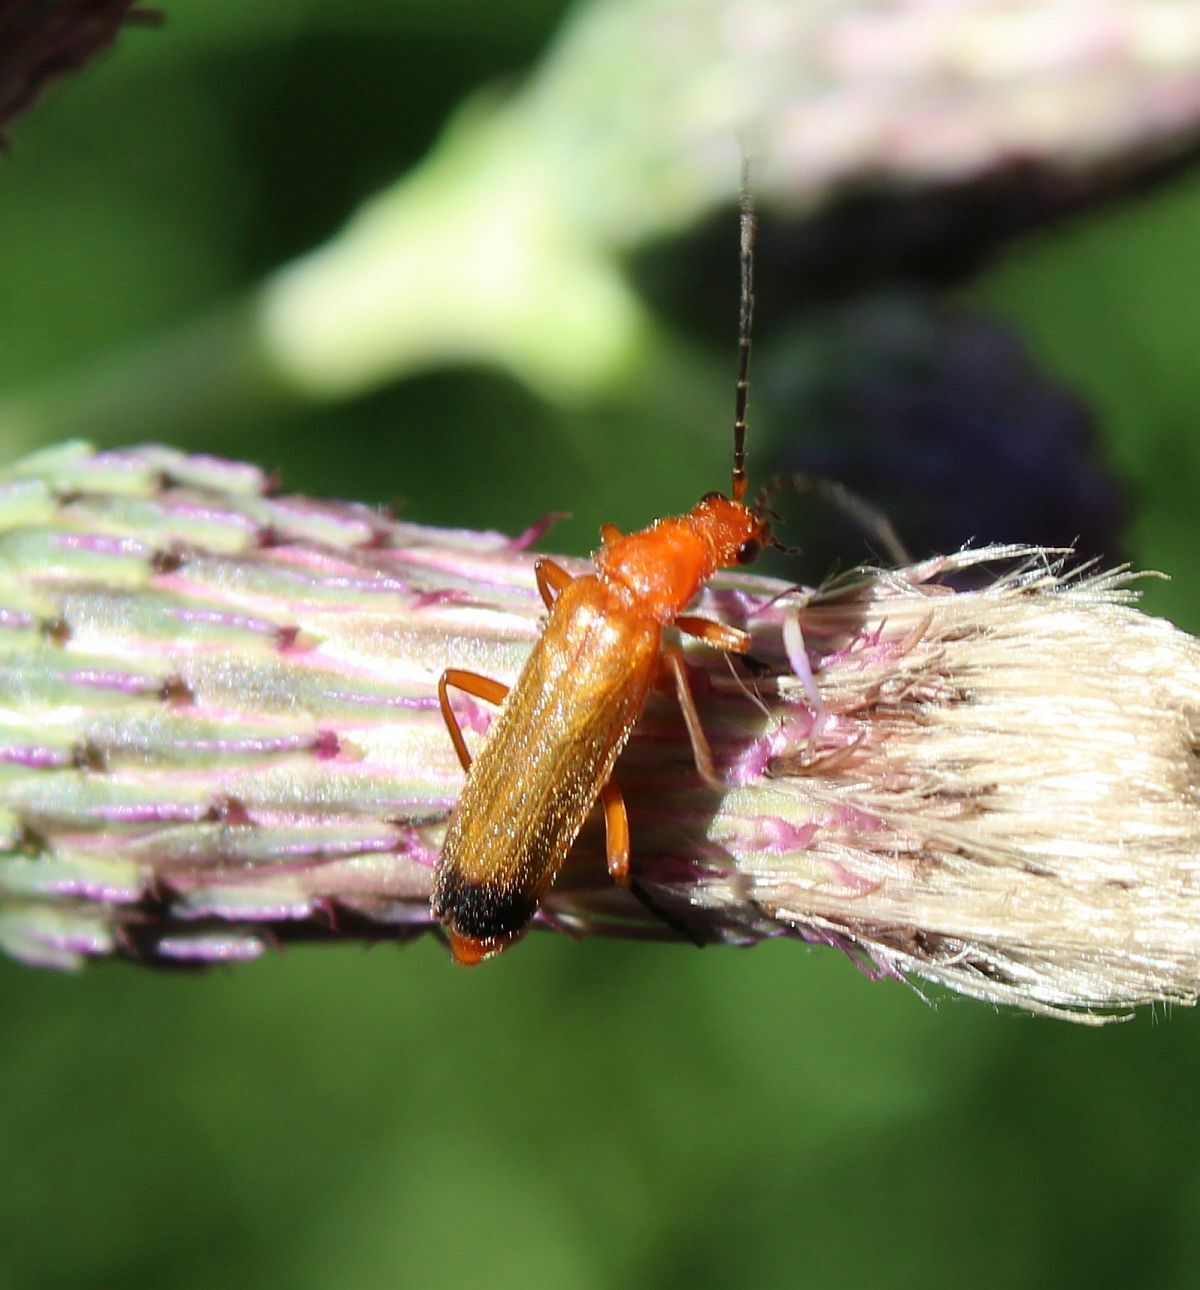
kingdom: Animalia
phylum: Arthropoda
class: Insecta
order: Coleoptera
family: Cantharidae
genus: Rhagonycha
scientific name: Rhagonycha fulva
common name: Common red soldier beetle
